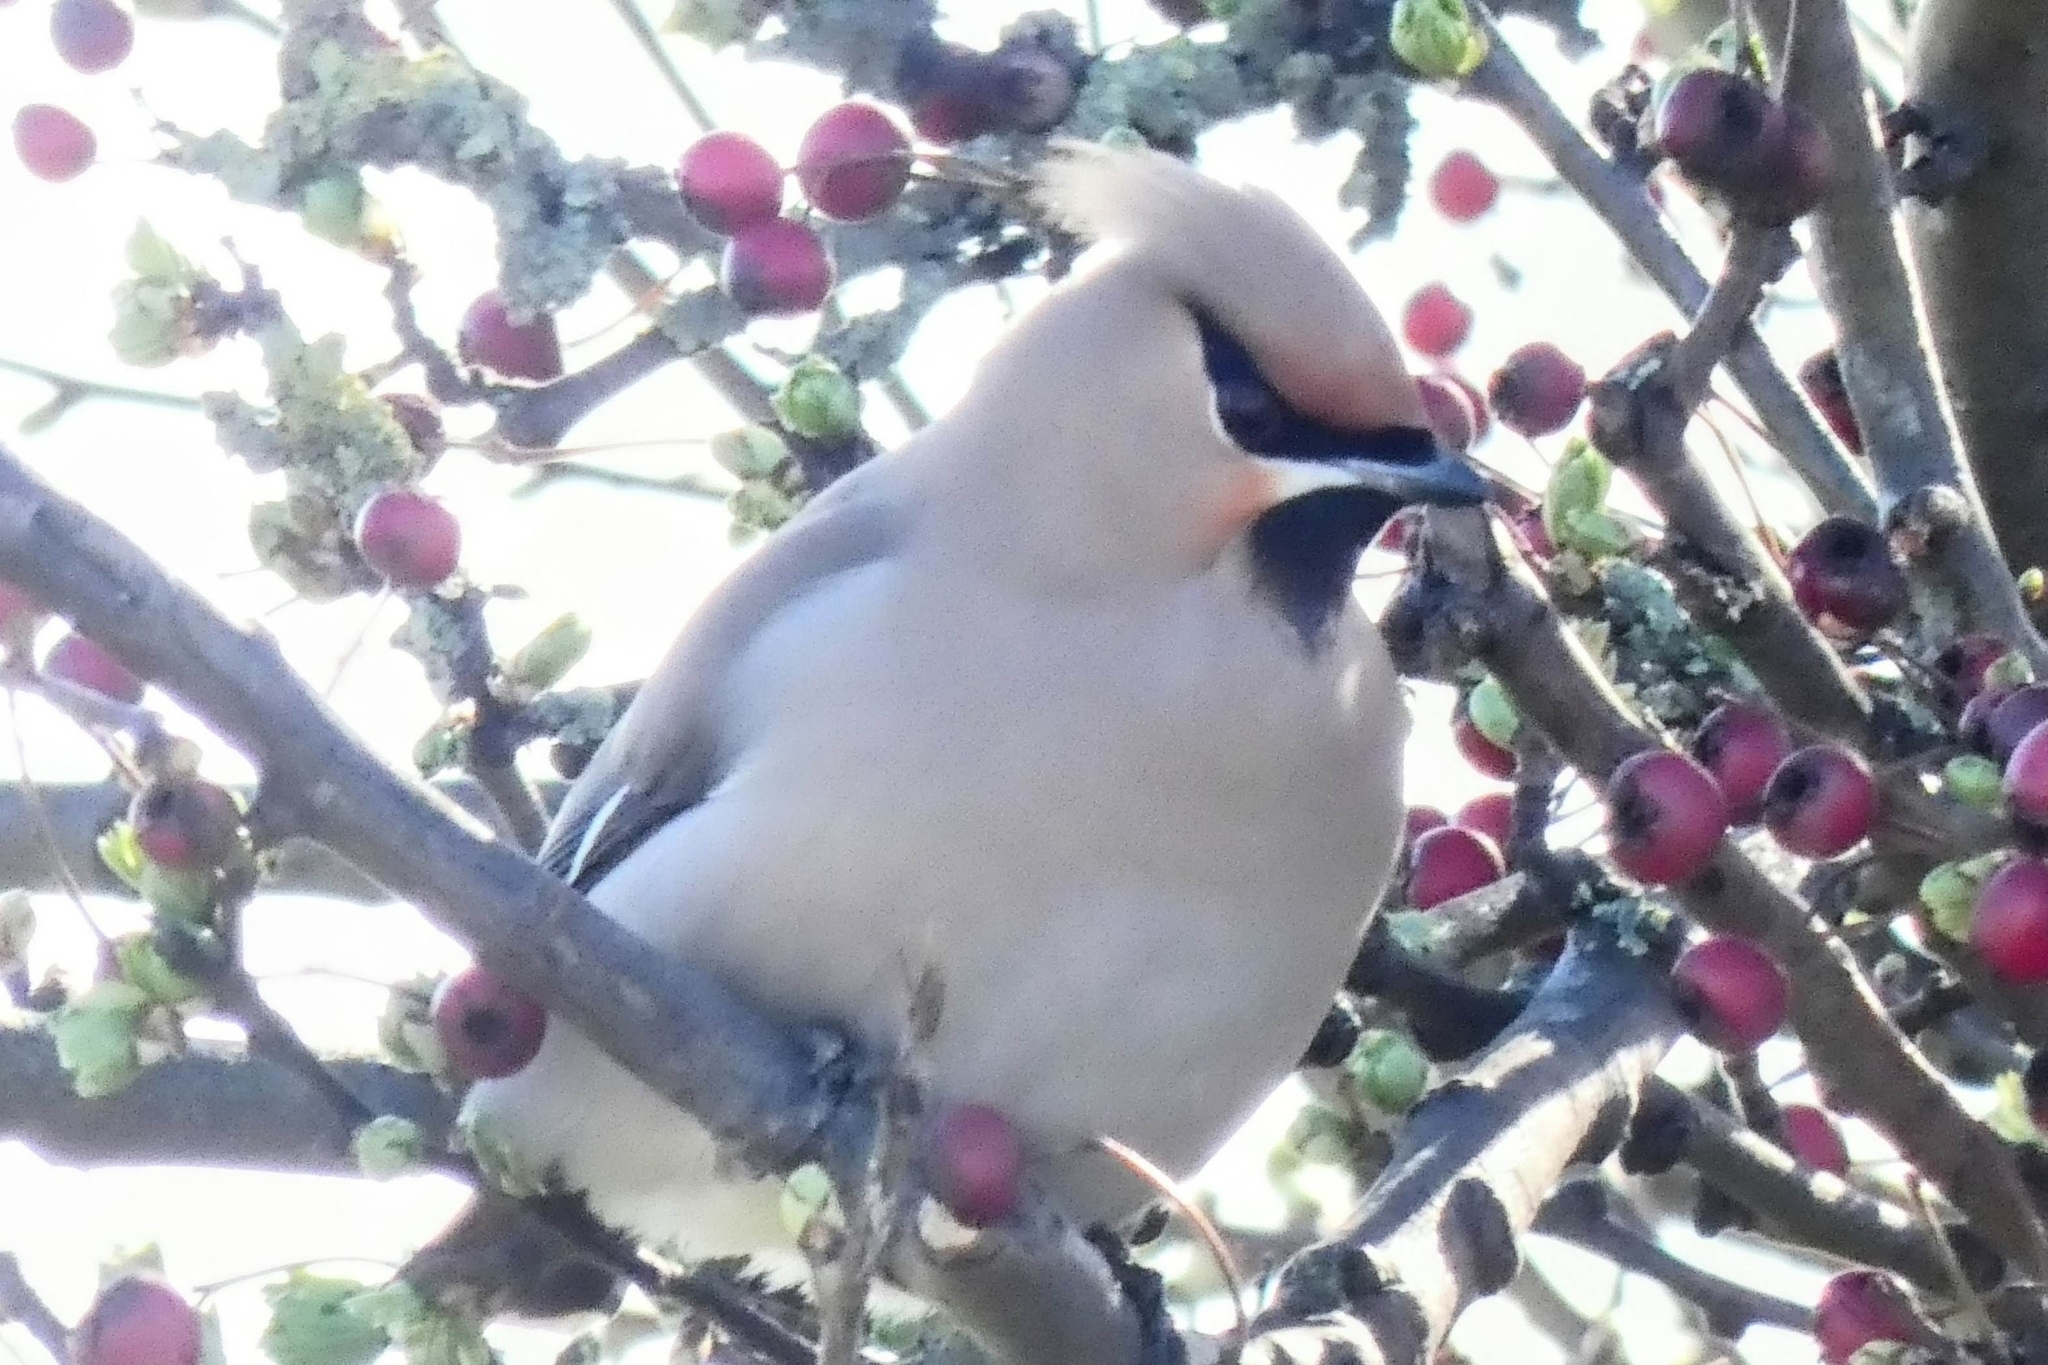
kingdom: Animalia
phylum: Chordata
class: Aves
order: Passeriformes
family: Bombycillidae
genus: Bombycilla
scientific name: Bombycilla garrulus
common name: Bohemian waxwing
